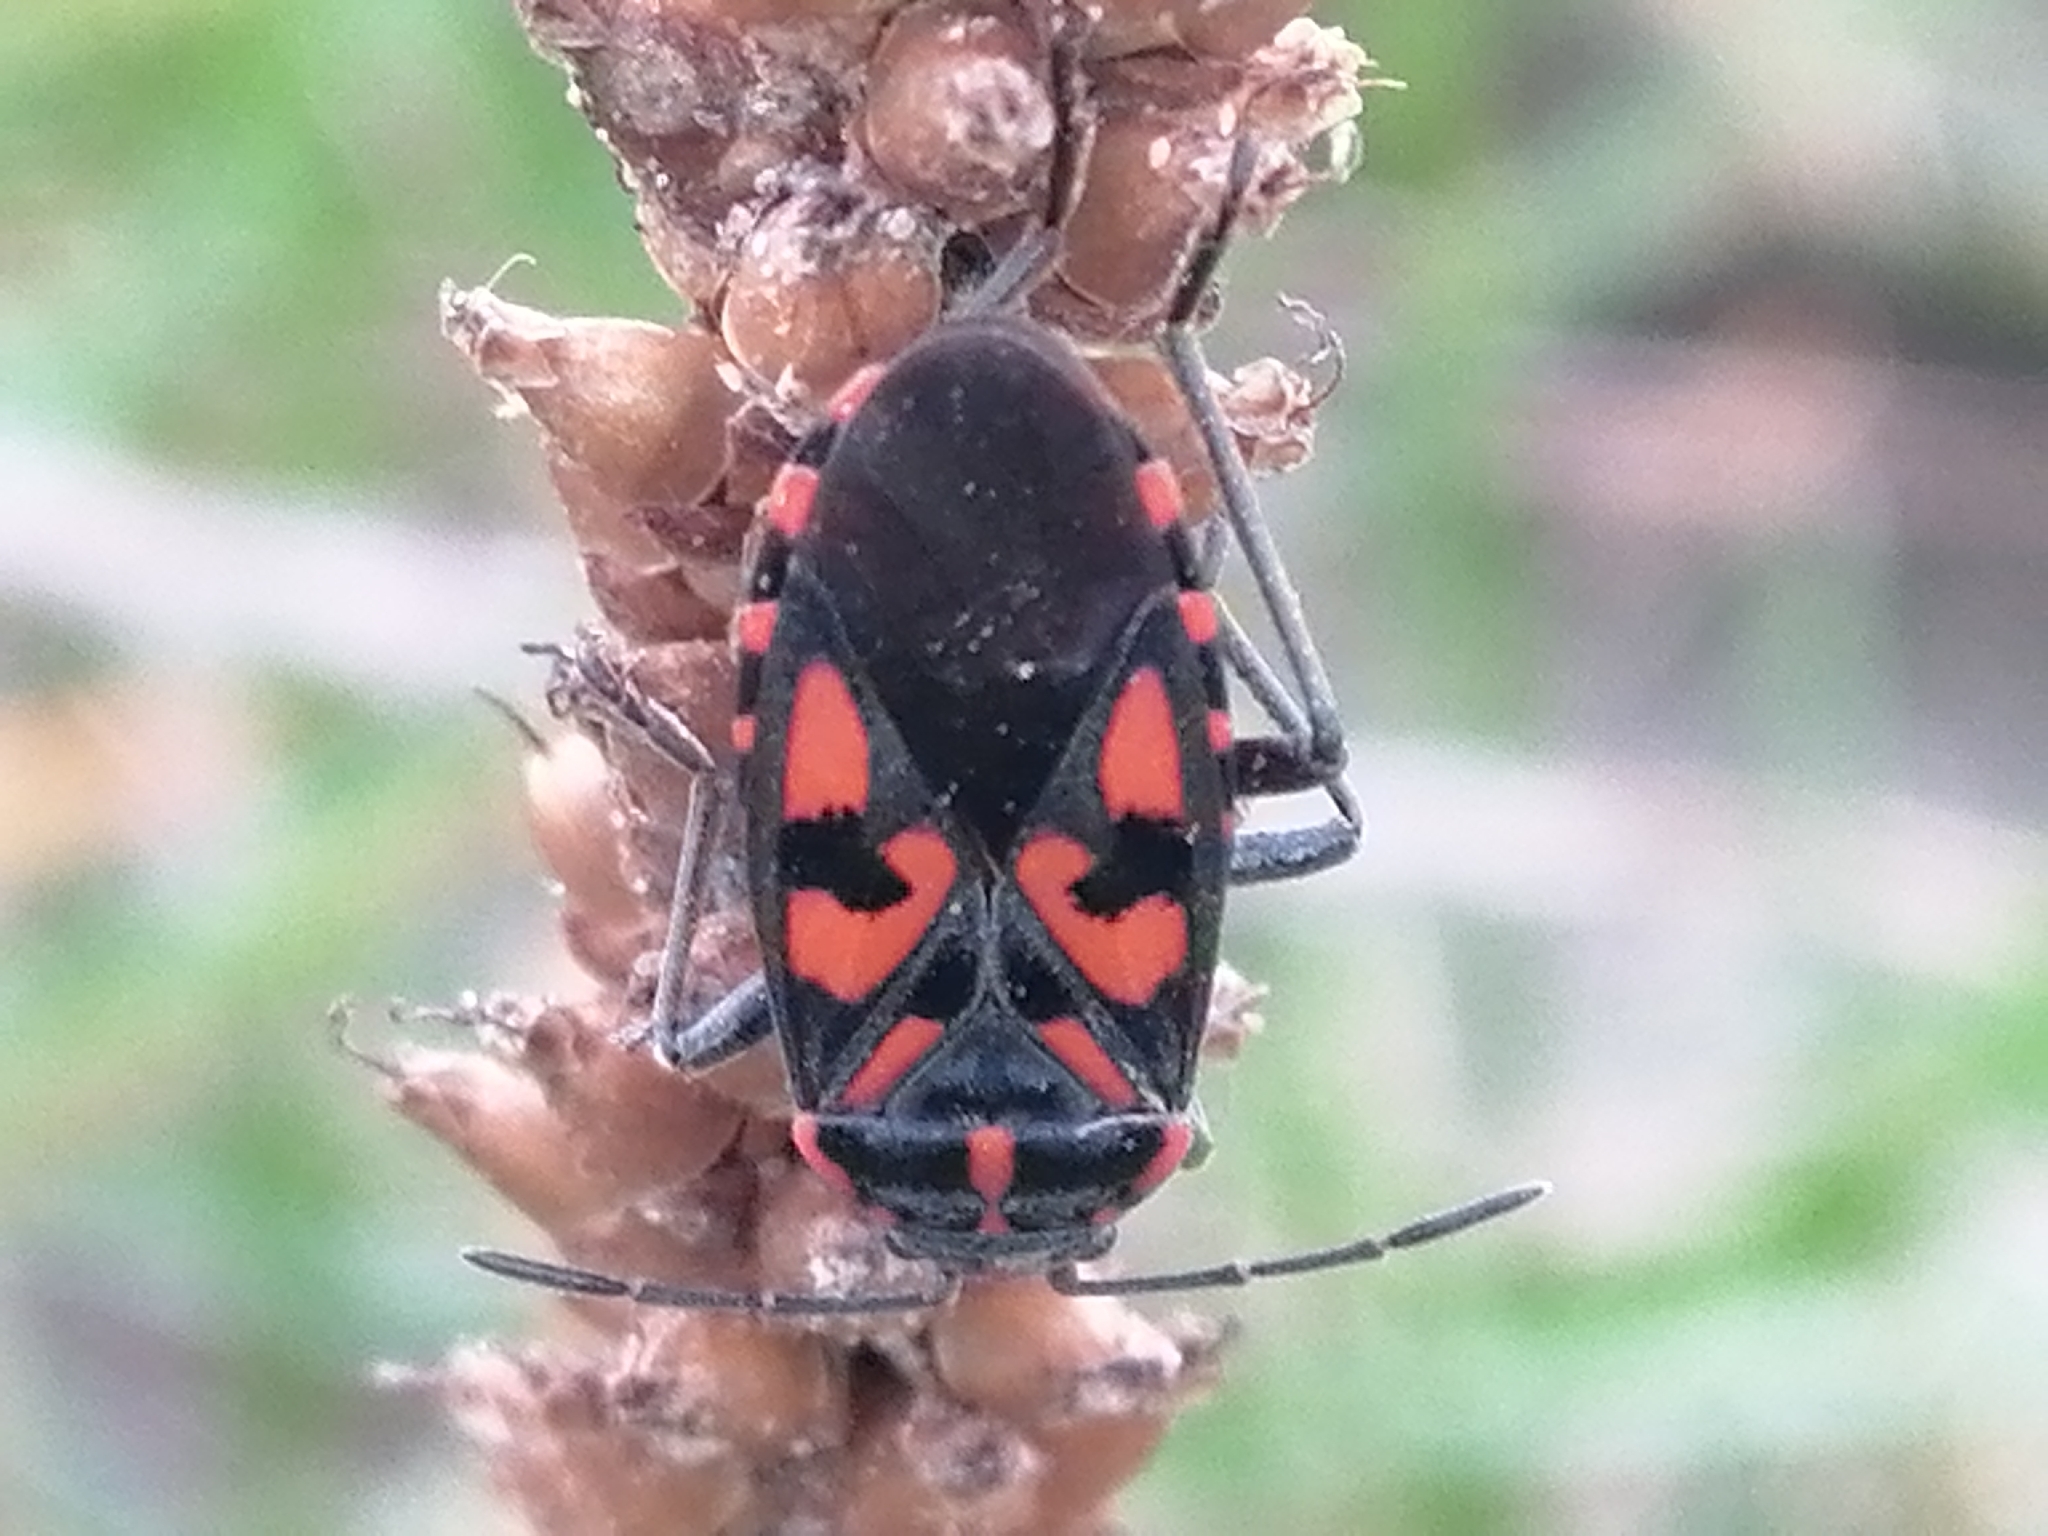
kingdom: Animalia
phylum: Arthropoda
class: Insecta
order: Hemiptera
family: Lygaeidae
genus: Spilostethus
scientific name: Spilostethus saxatilis
